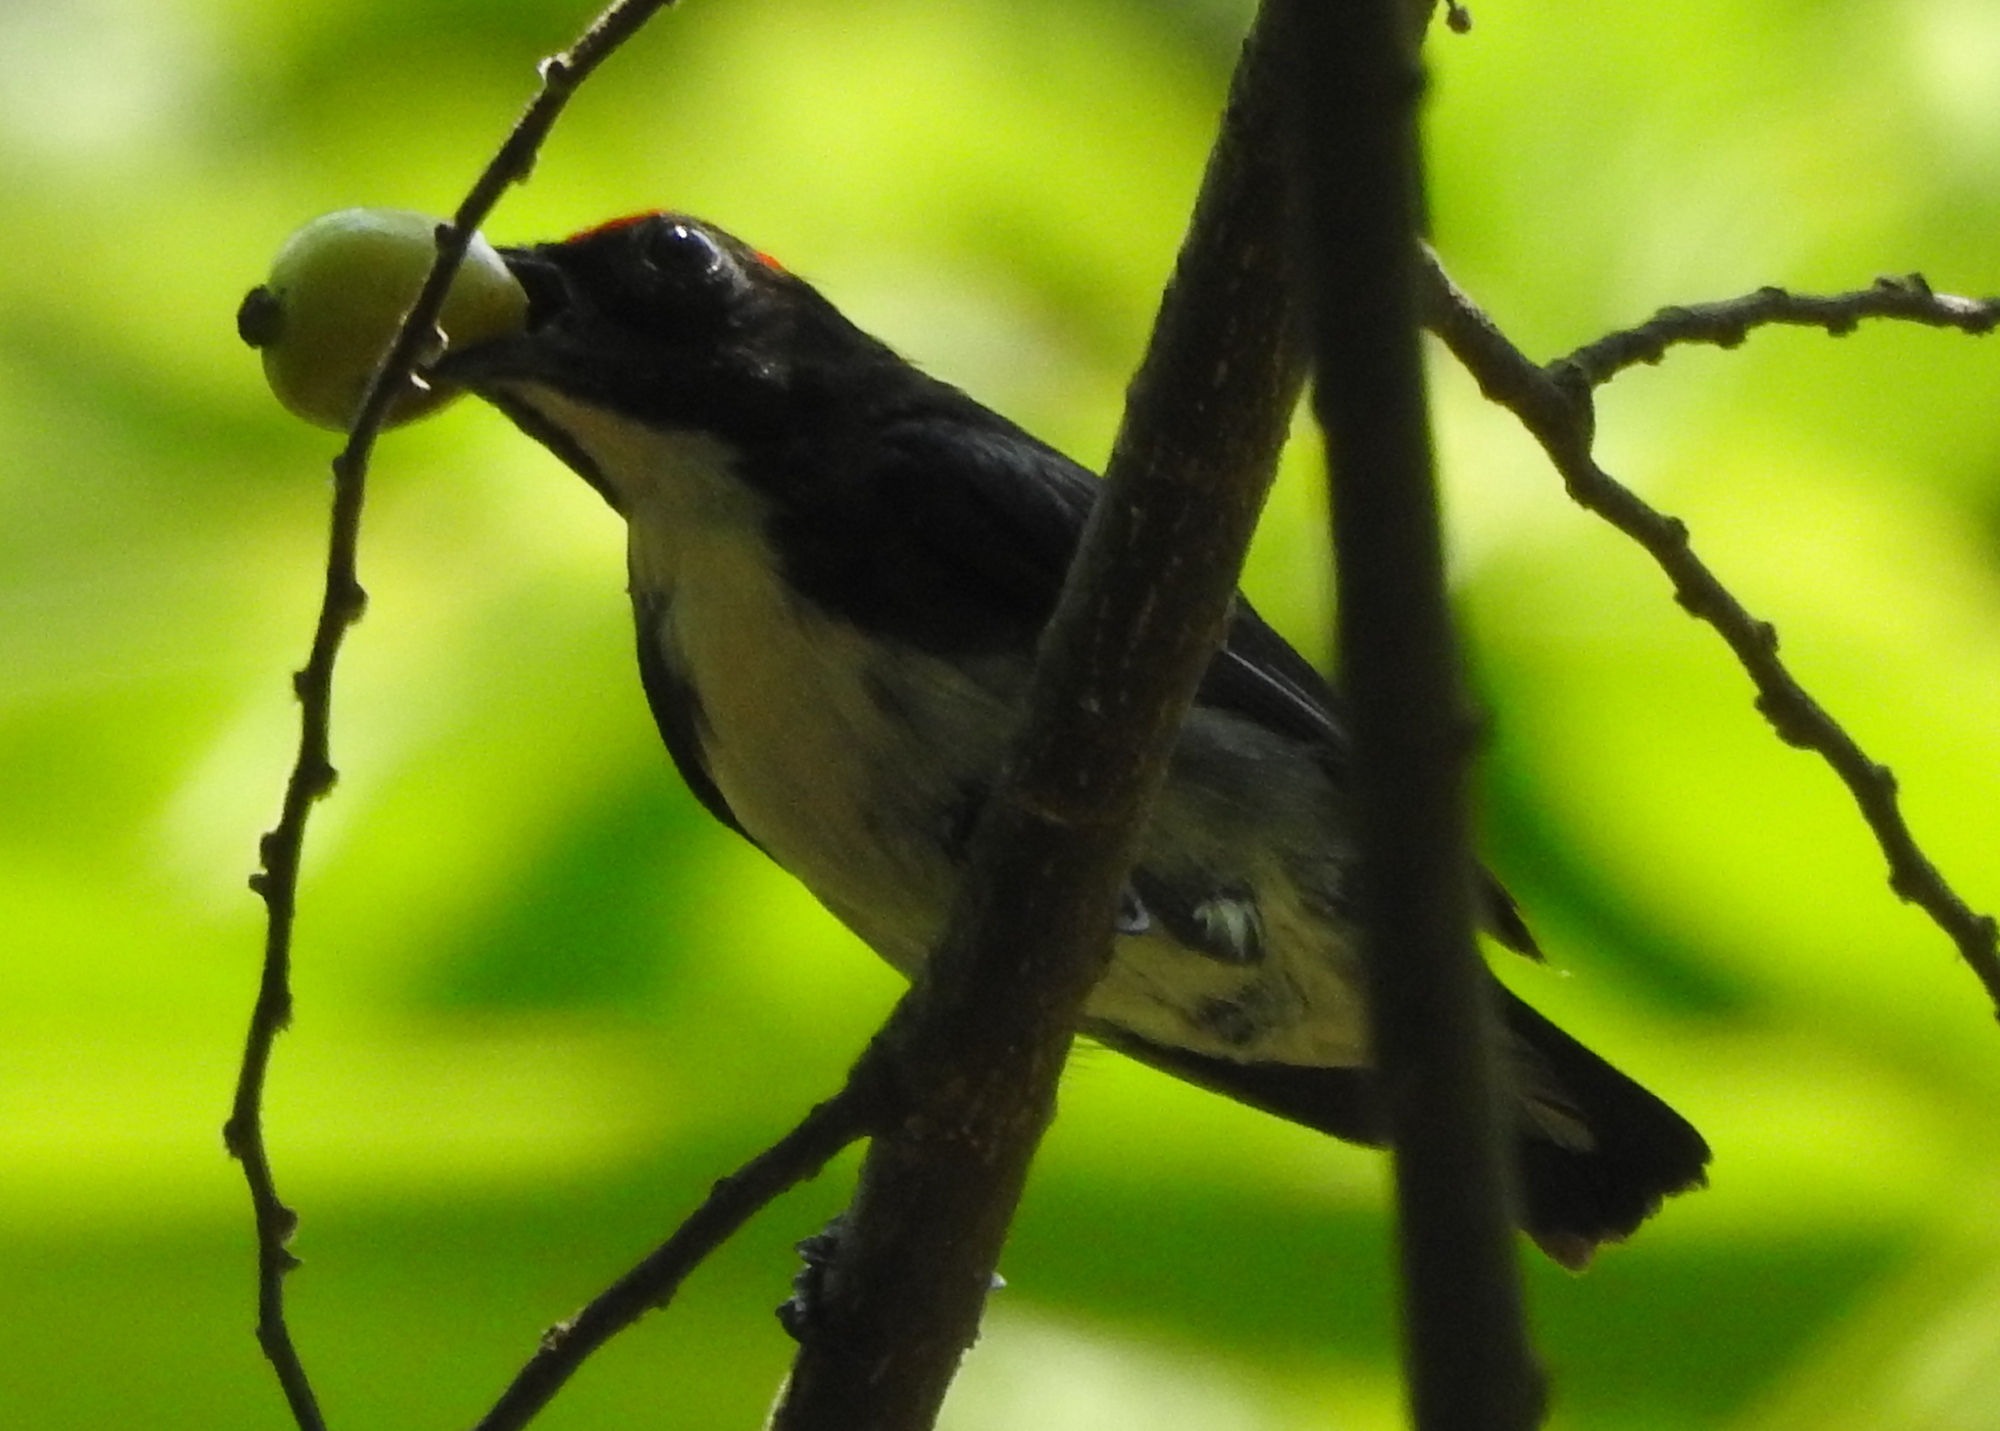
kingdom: Animalia
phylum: Chordata
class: Aves
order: Passeriformes
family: Dicaeidae
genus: Dicaeum
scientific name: Dicaeum cruentatum
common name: Scarlet-backed flowerpecker
